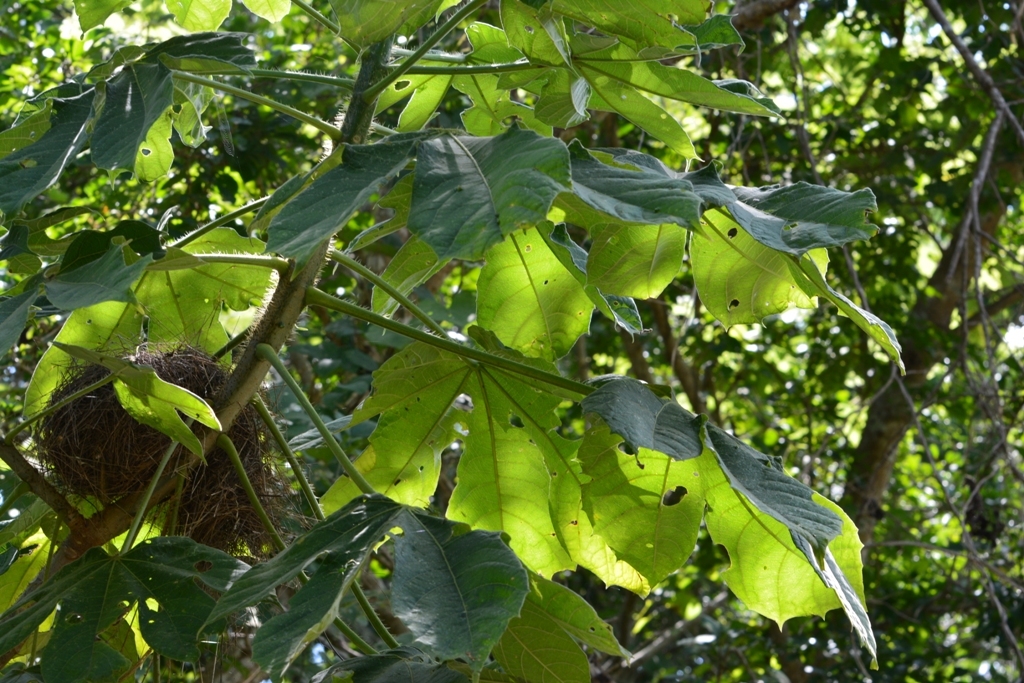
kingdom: Plantae
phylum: Tracheophyta
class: Magnoliopsida
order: Malpighiales
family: Euphorbiaceae
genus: Cnidoscolus
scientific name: Cnidoscolus spinosus
